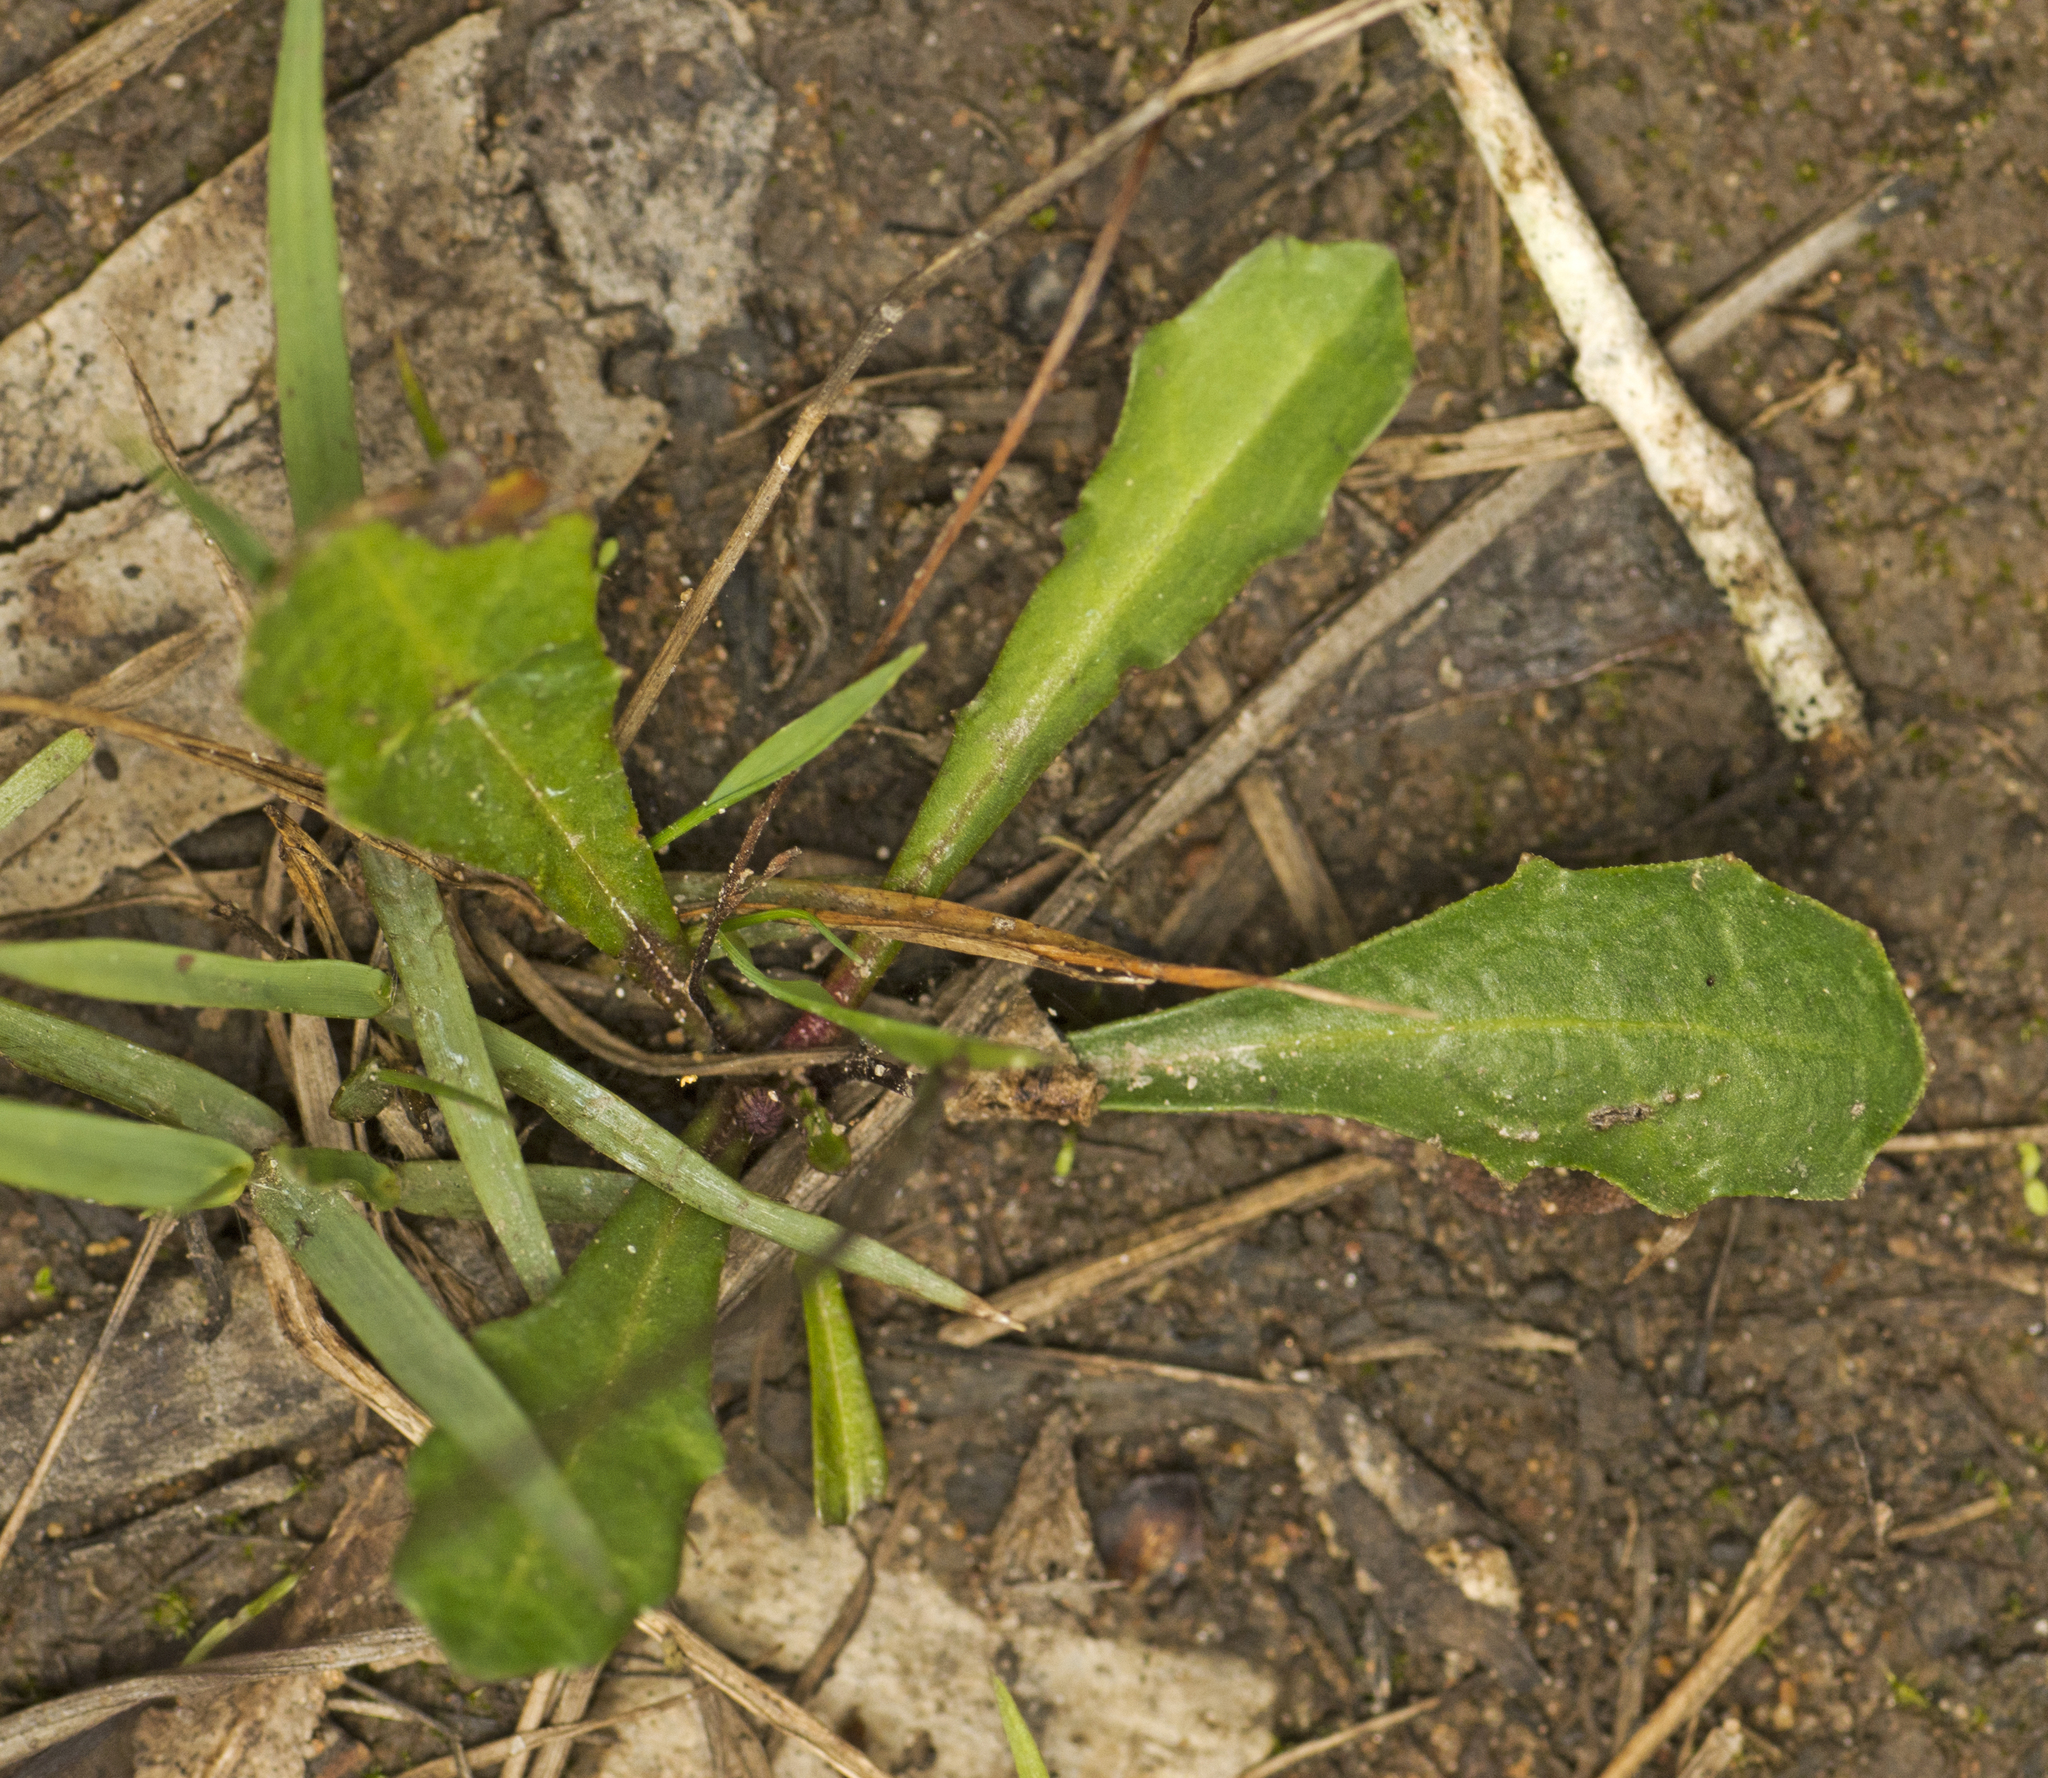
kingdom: Plantae
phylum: Tracheophyta
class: Magnoliopsida
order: Asterales
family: Asteraceae
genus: Lagenophora
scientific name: Lagenophora sublyrata ter
